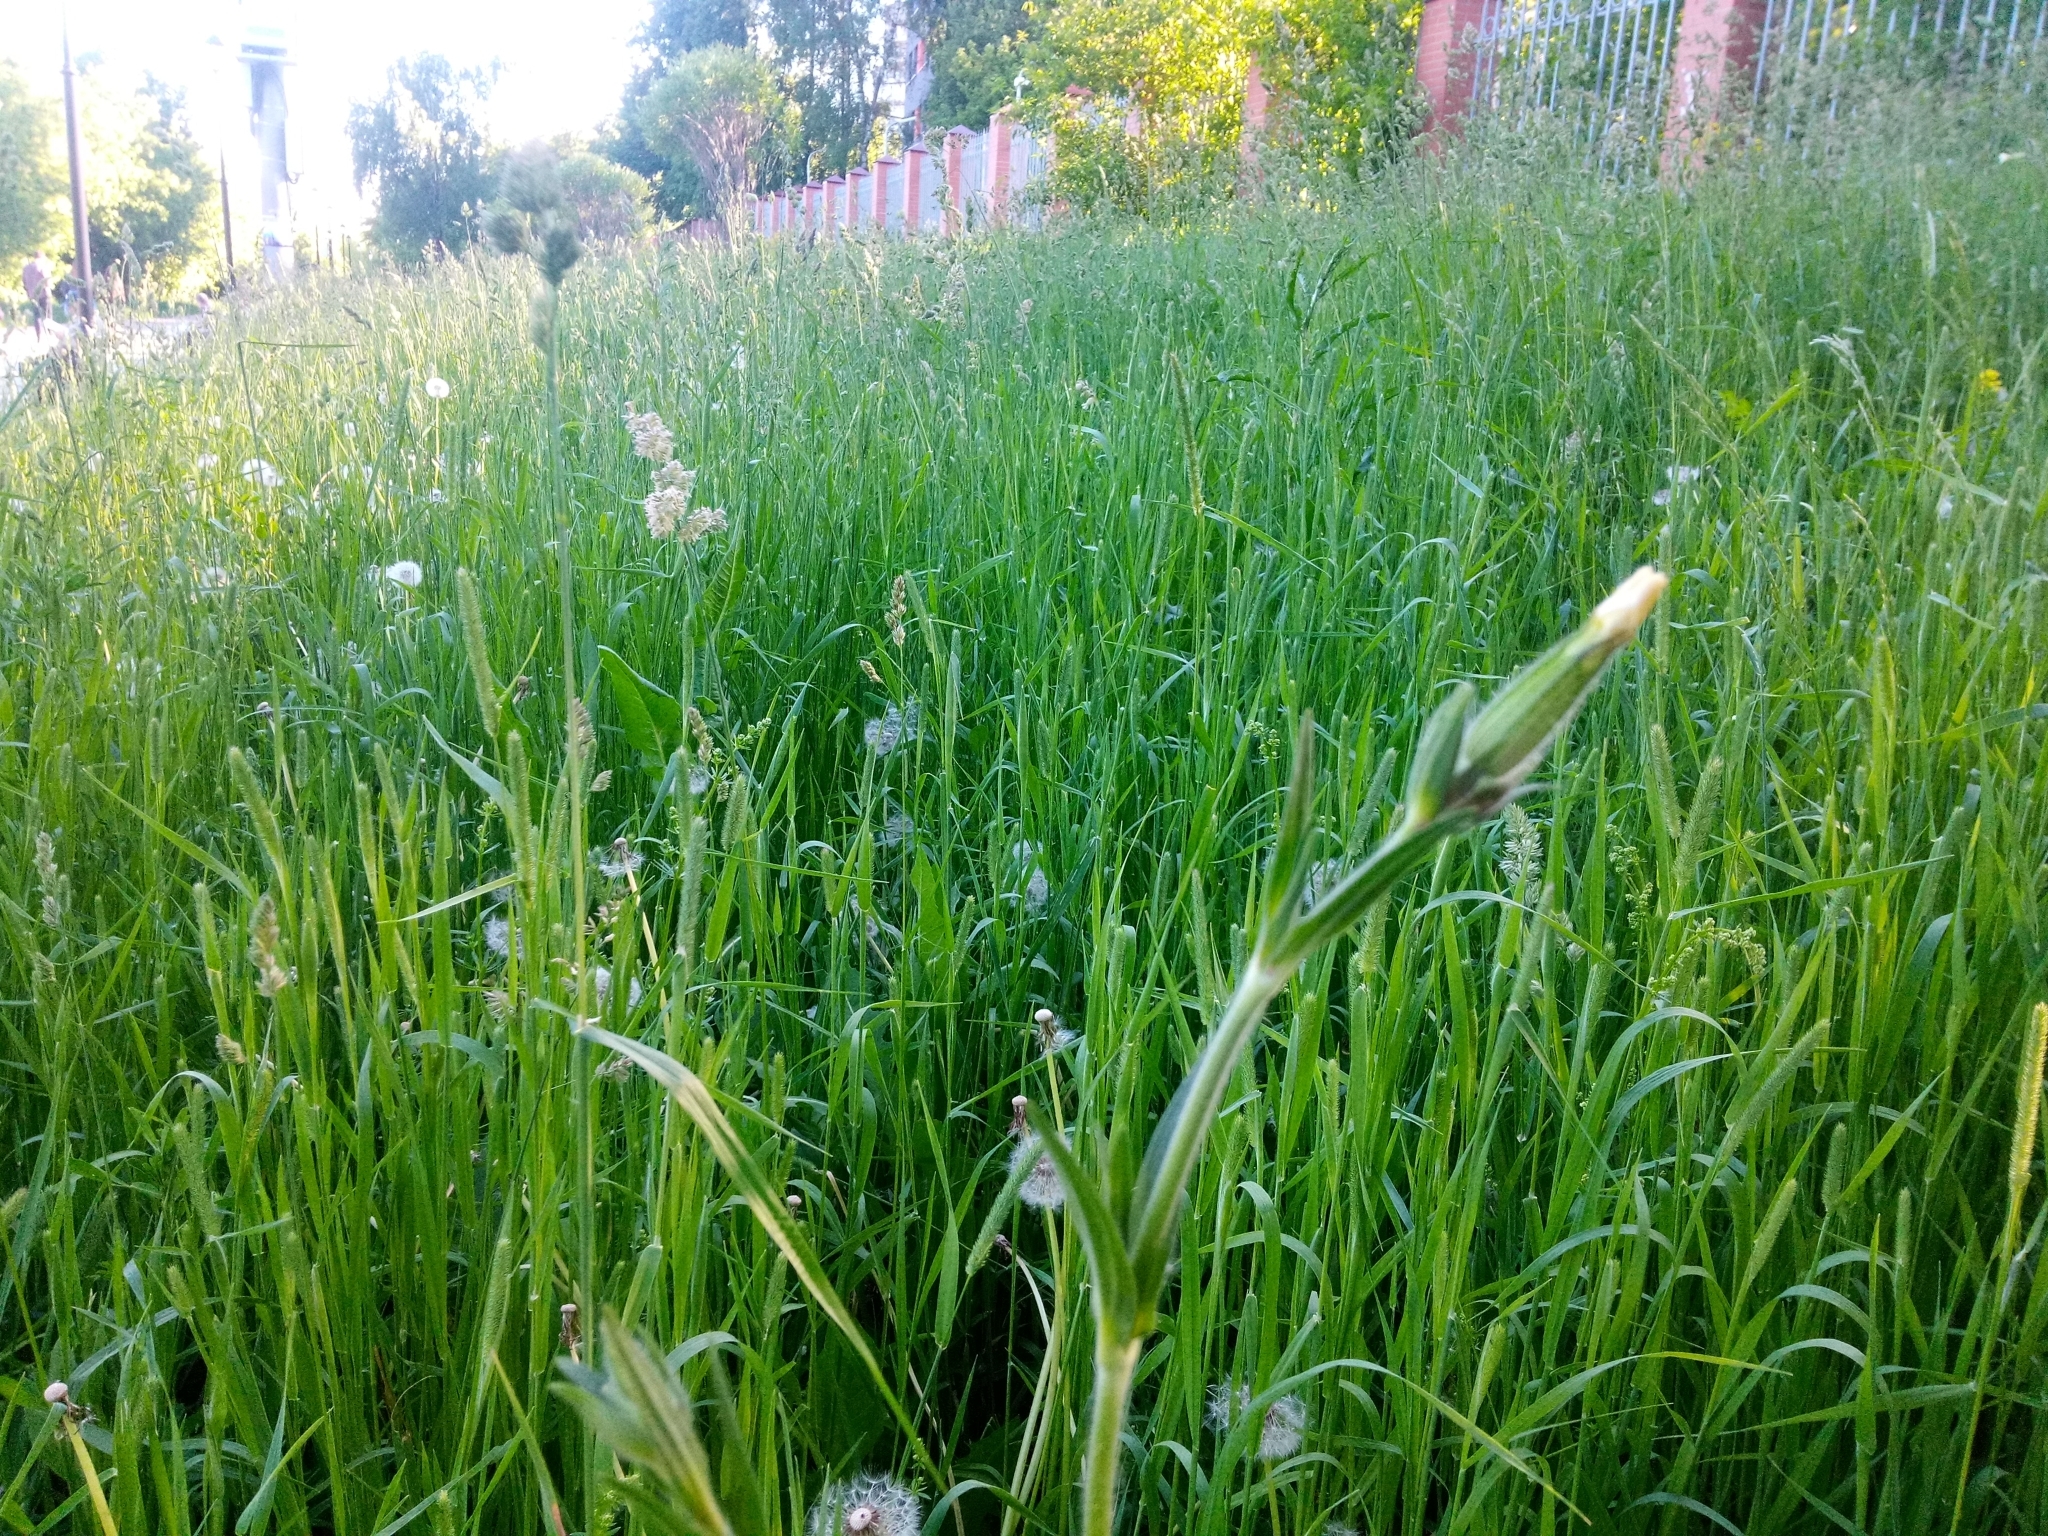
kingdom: Plantae
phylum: Tracheophyta
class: Magnoliopsida
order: Caryophyllales
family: Caryophyllaceae
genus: Silene
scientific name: Silene noctiflora
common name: Night-flowering catchfly
